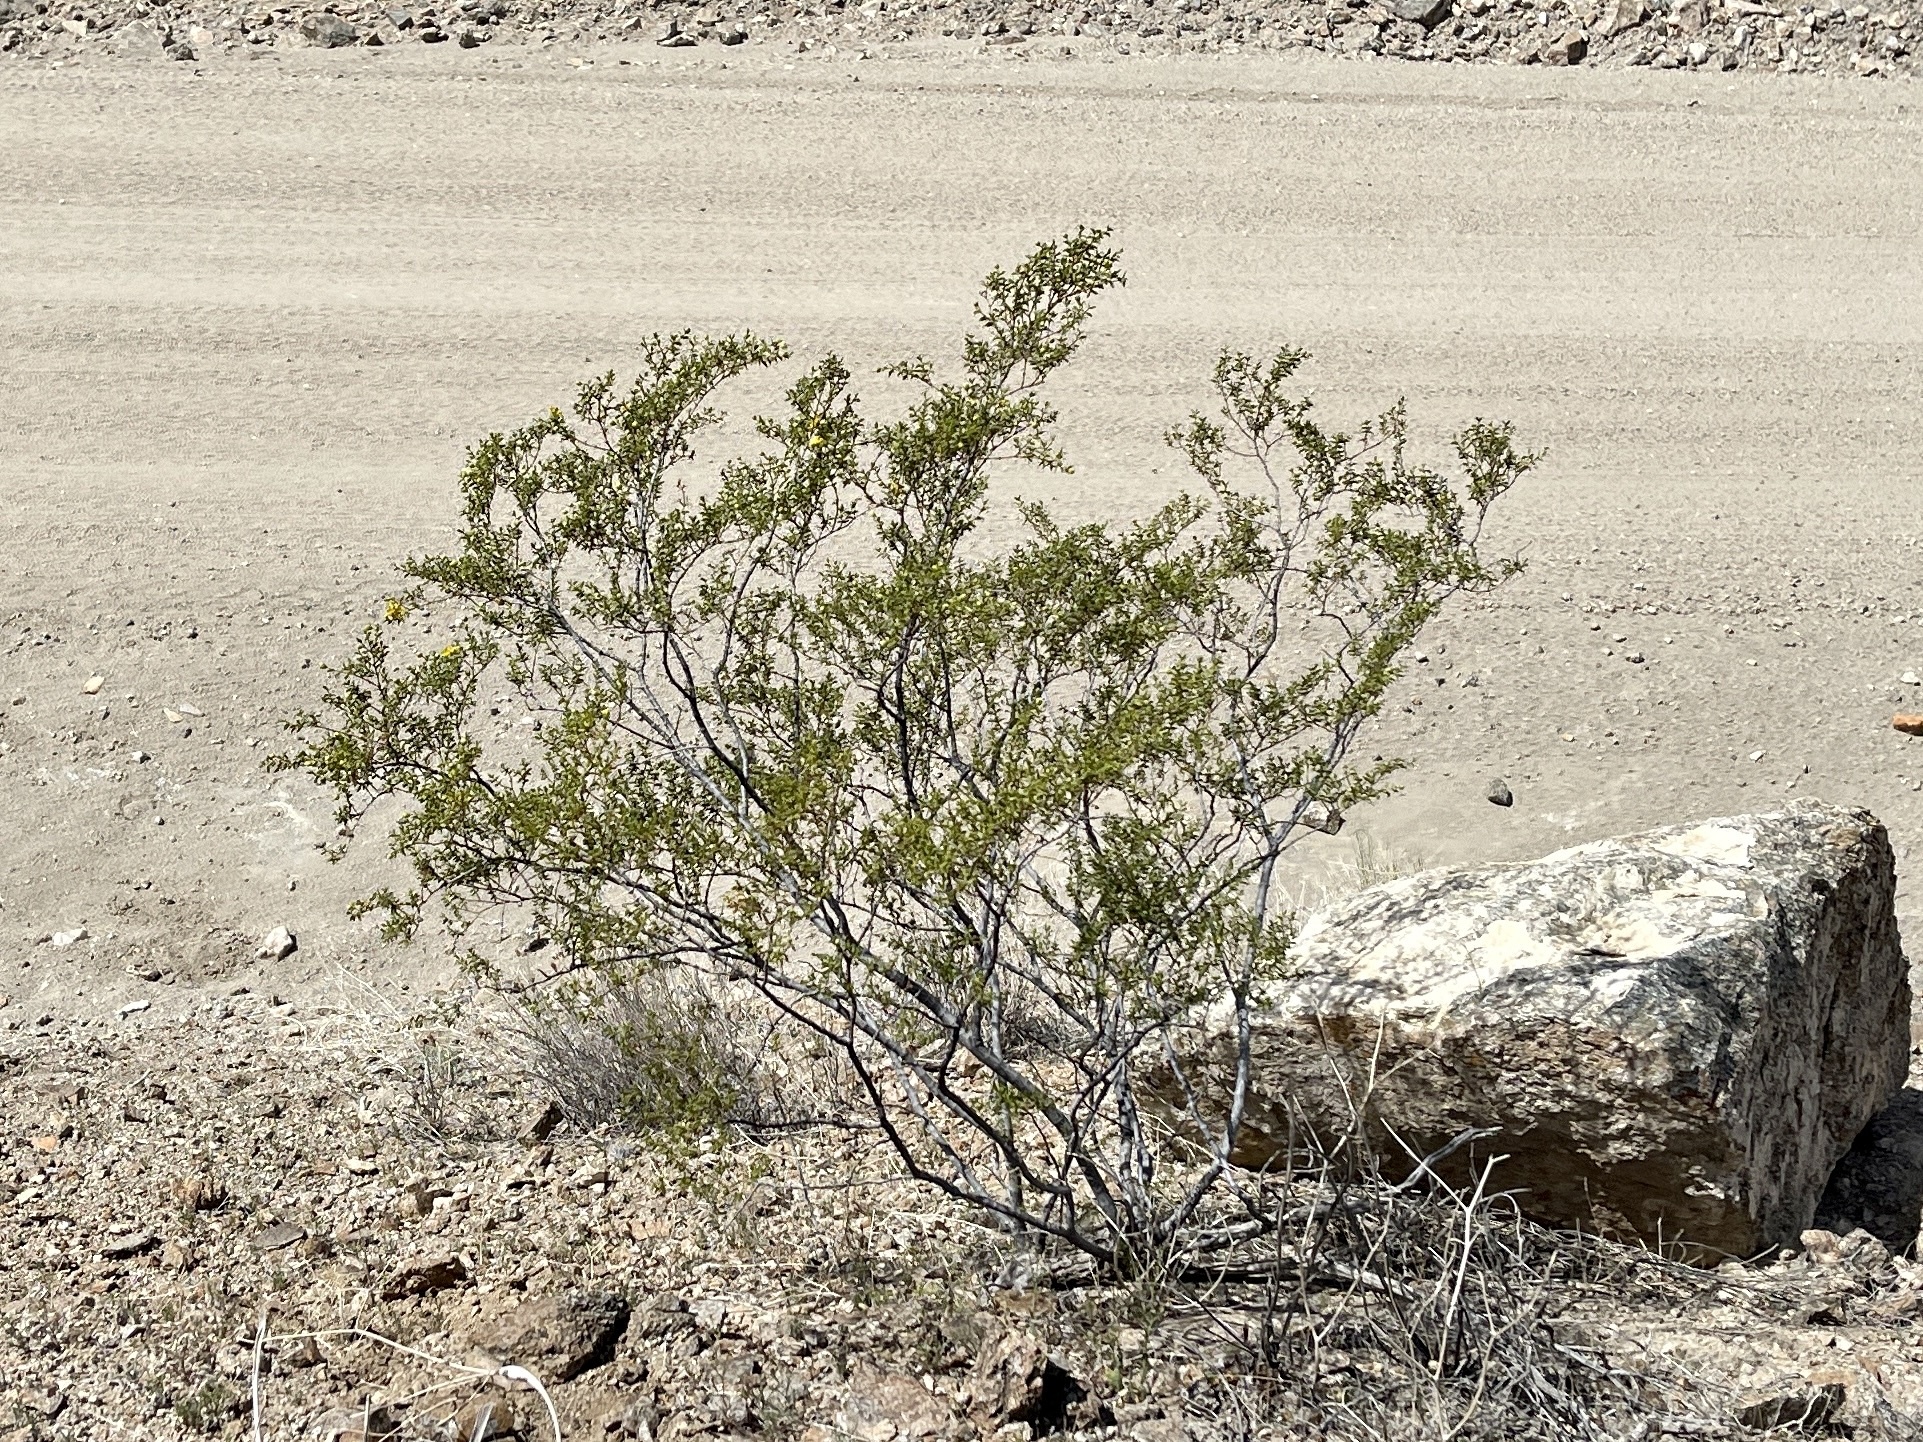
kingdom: Plantae
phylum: Tracheophyta
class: Magnoliopsida
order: Zygophyllales
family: Zygophyllaceae
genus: Larrea
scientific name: Larrea tridentata
